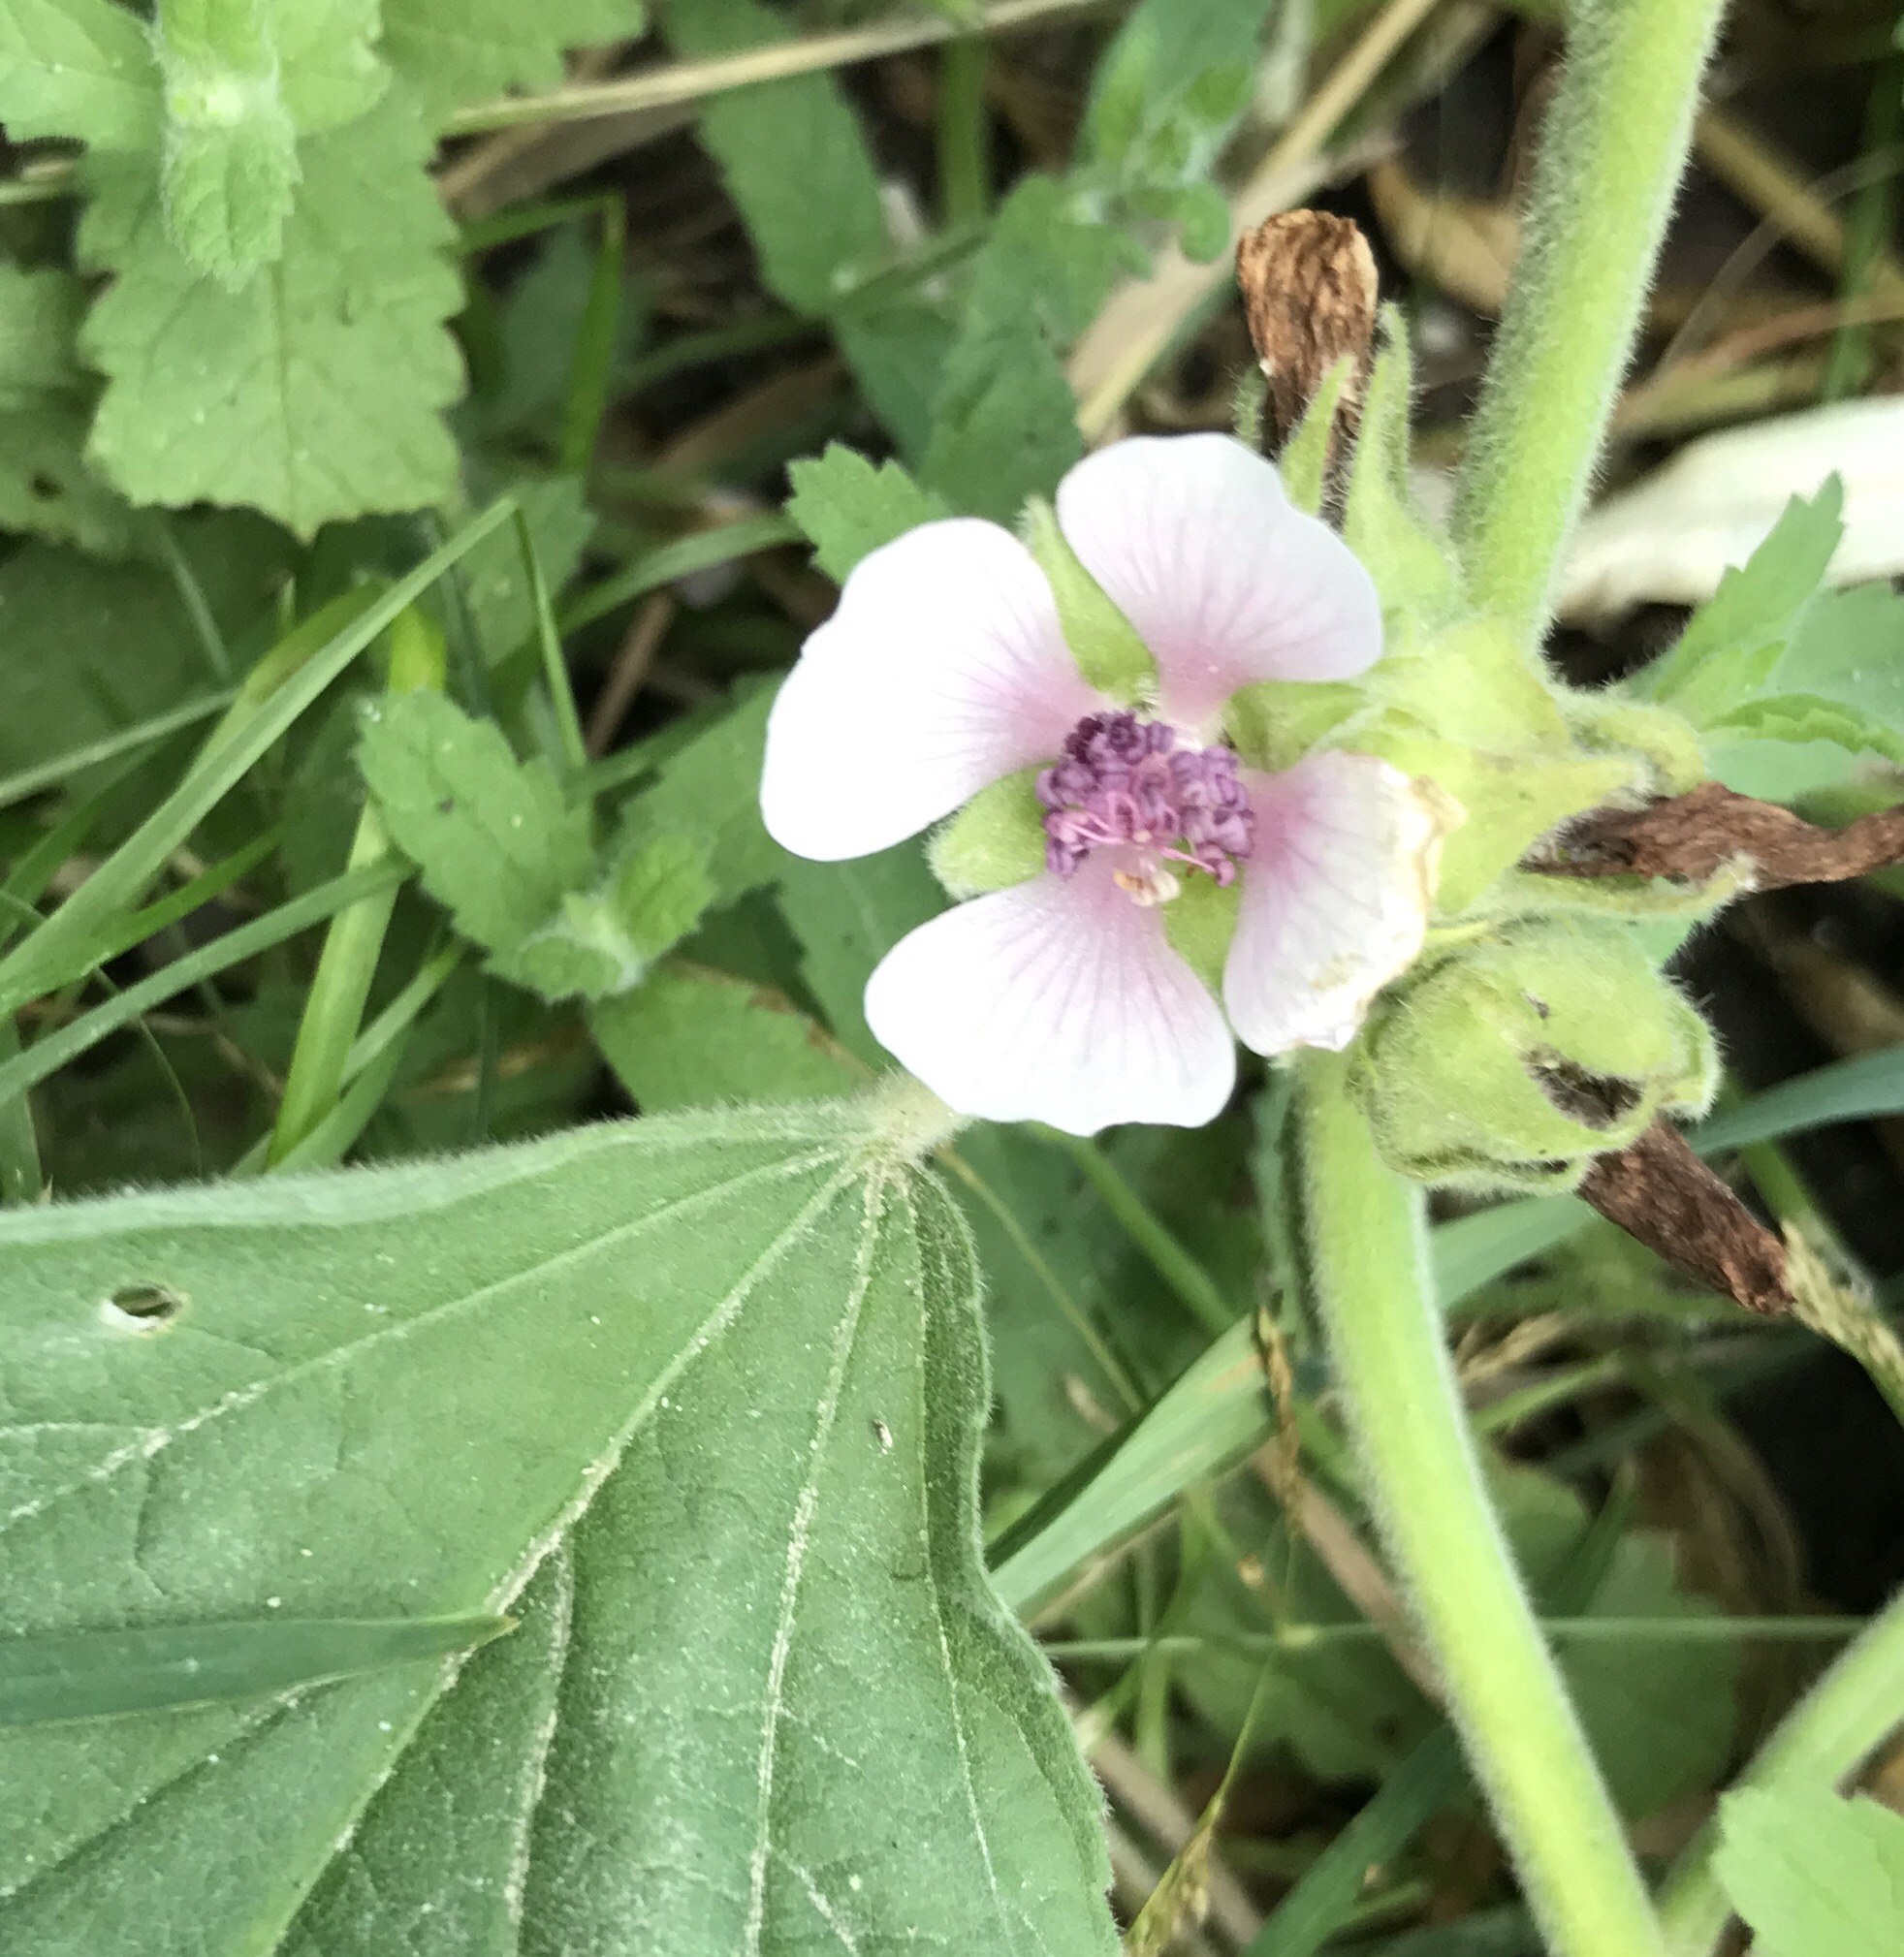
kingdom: Plantae
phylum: Tracheophyta
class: Magnoliopsida
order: Malvales
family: Malvaceae
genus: Althaea
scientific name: Althaea officinalis
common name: Marsh-mallow
